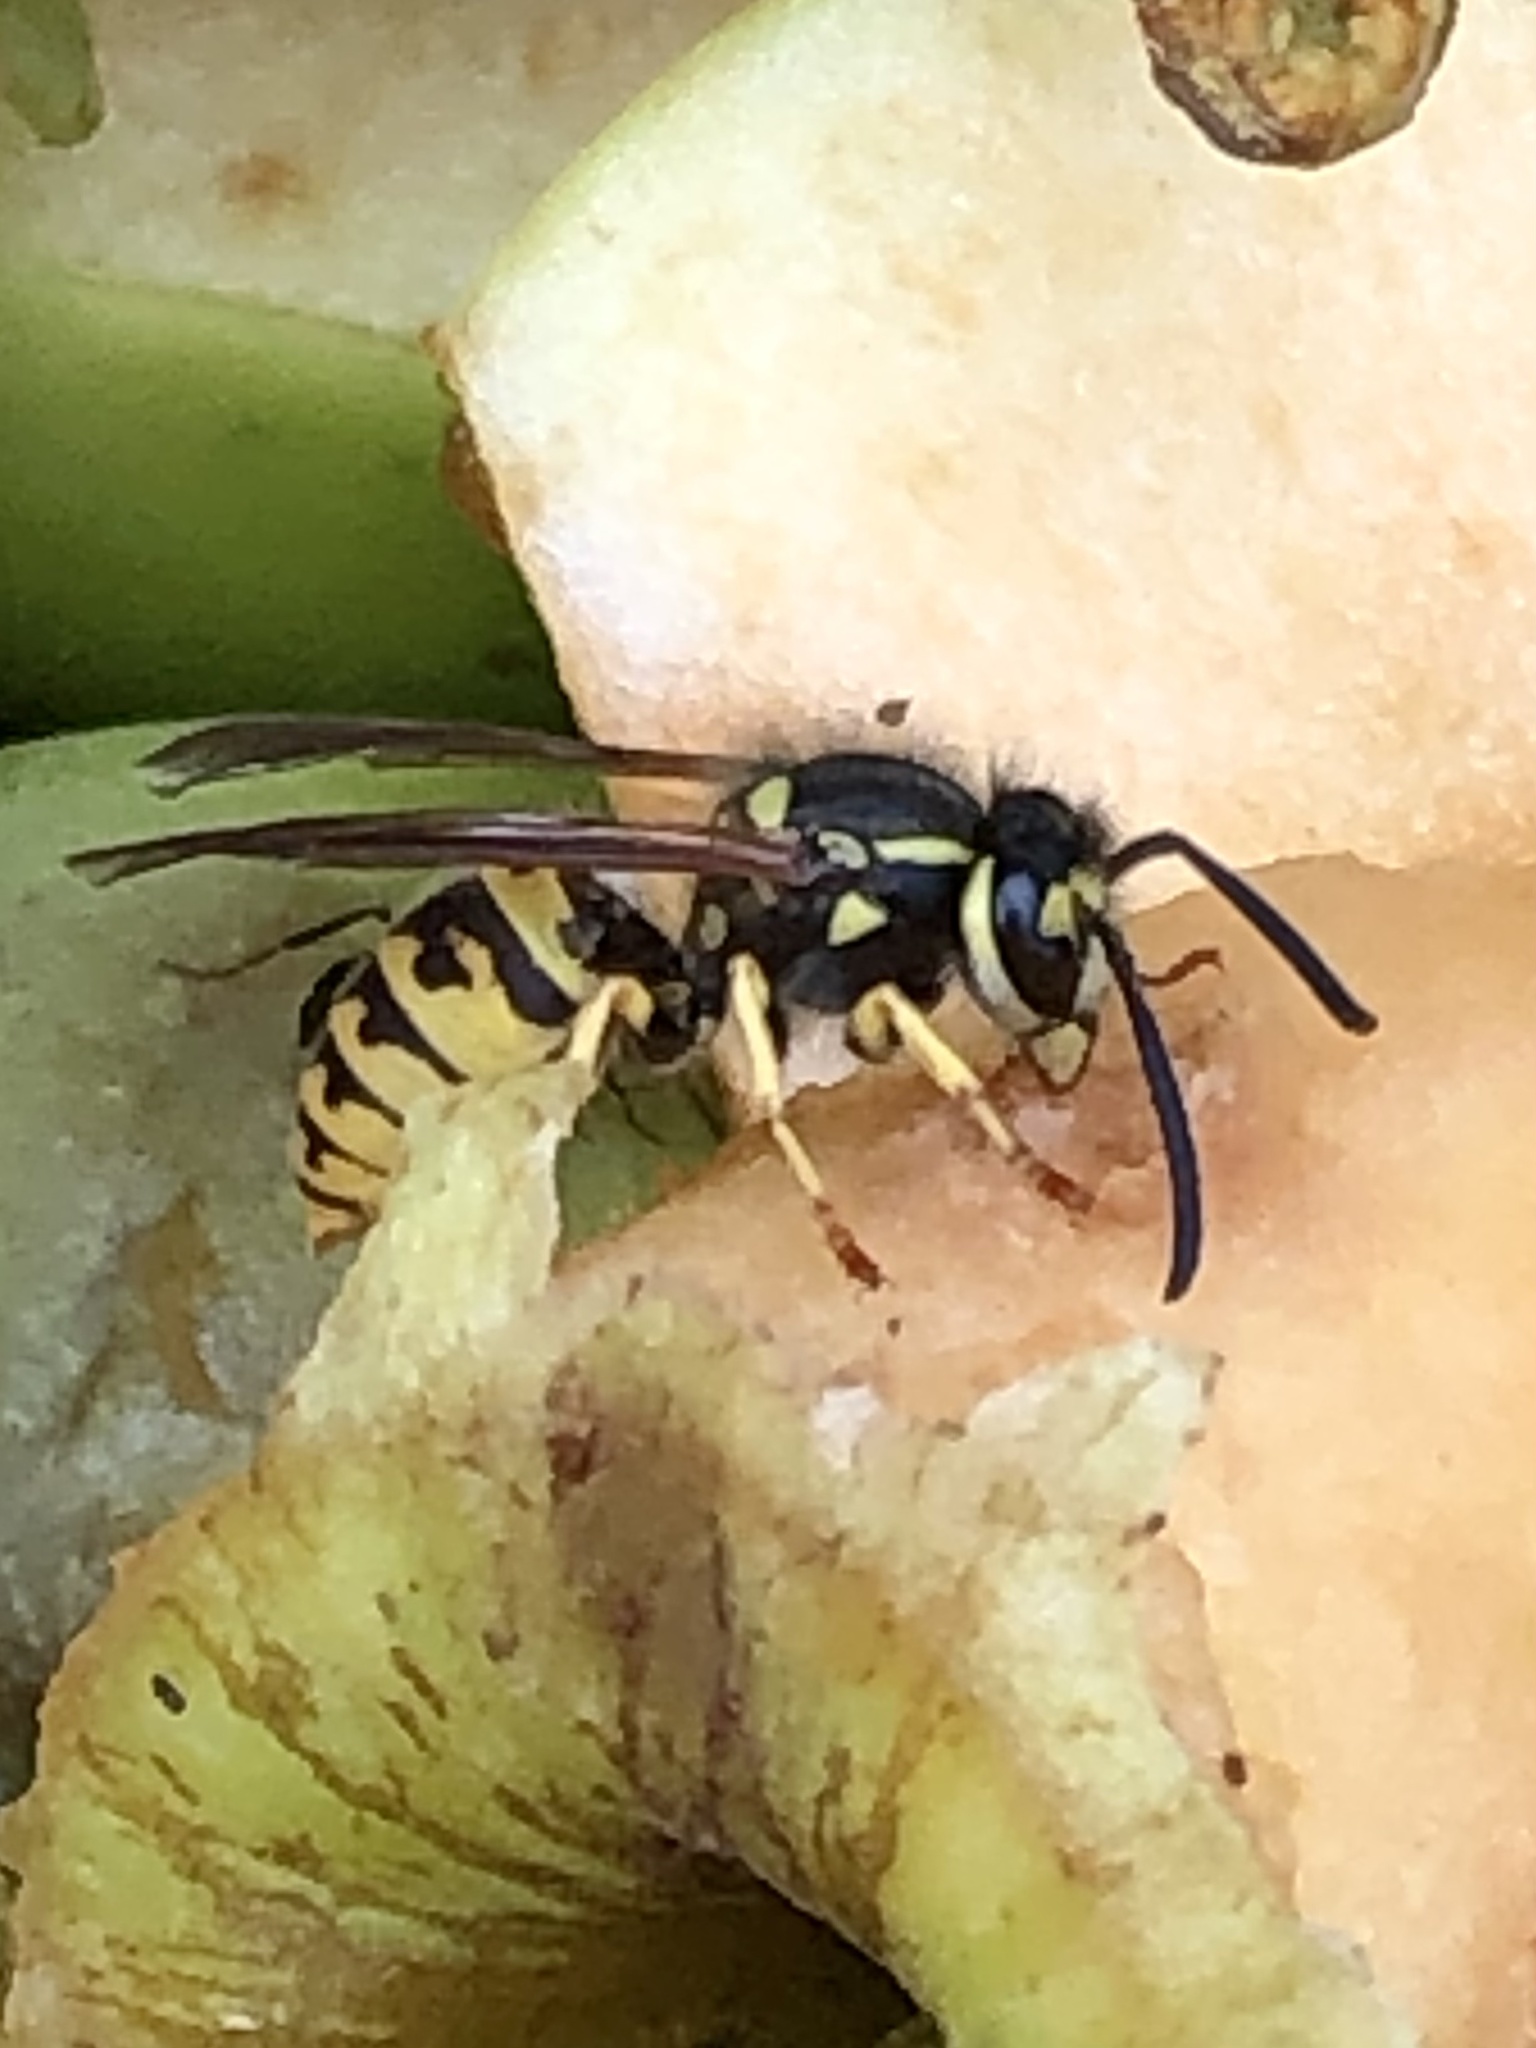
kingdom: Animalia
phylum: Arthropoda
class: Insecta
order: Hymenoptera
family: Vespidae
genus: Vespula
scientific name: Vespula germanica
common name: German wasp
